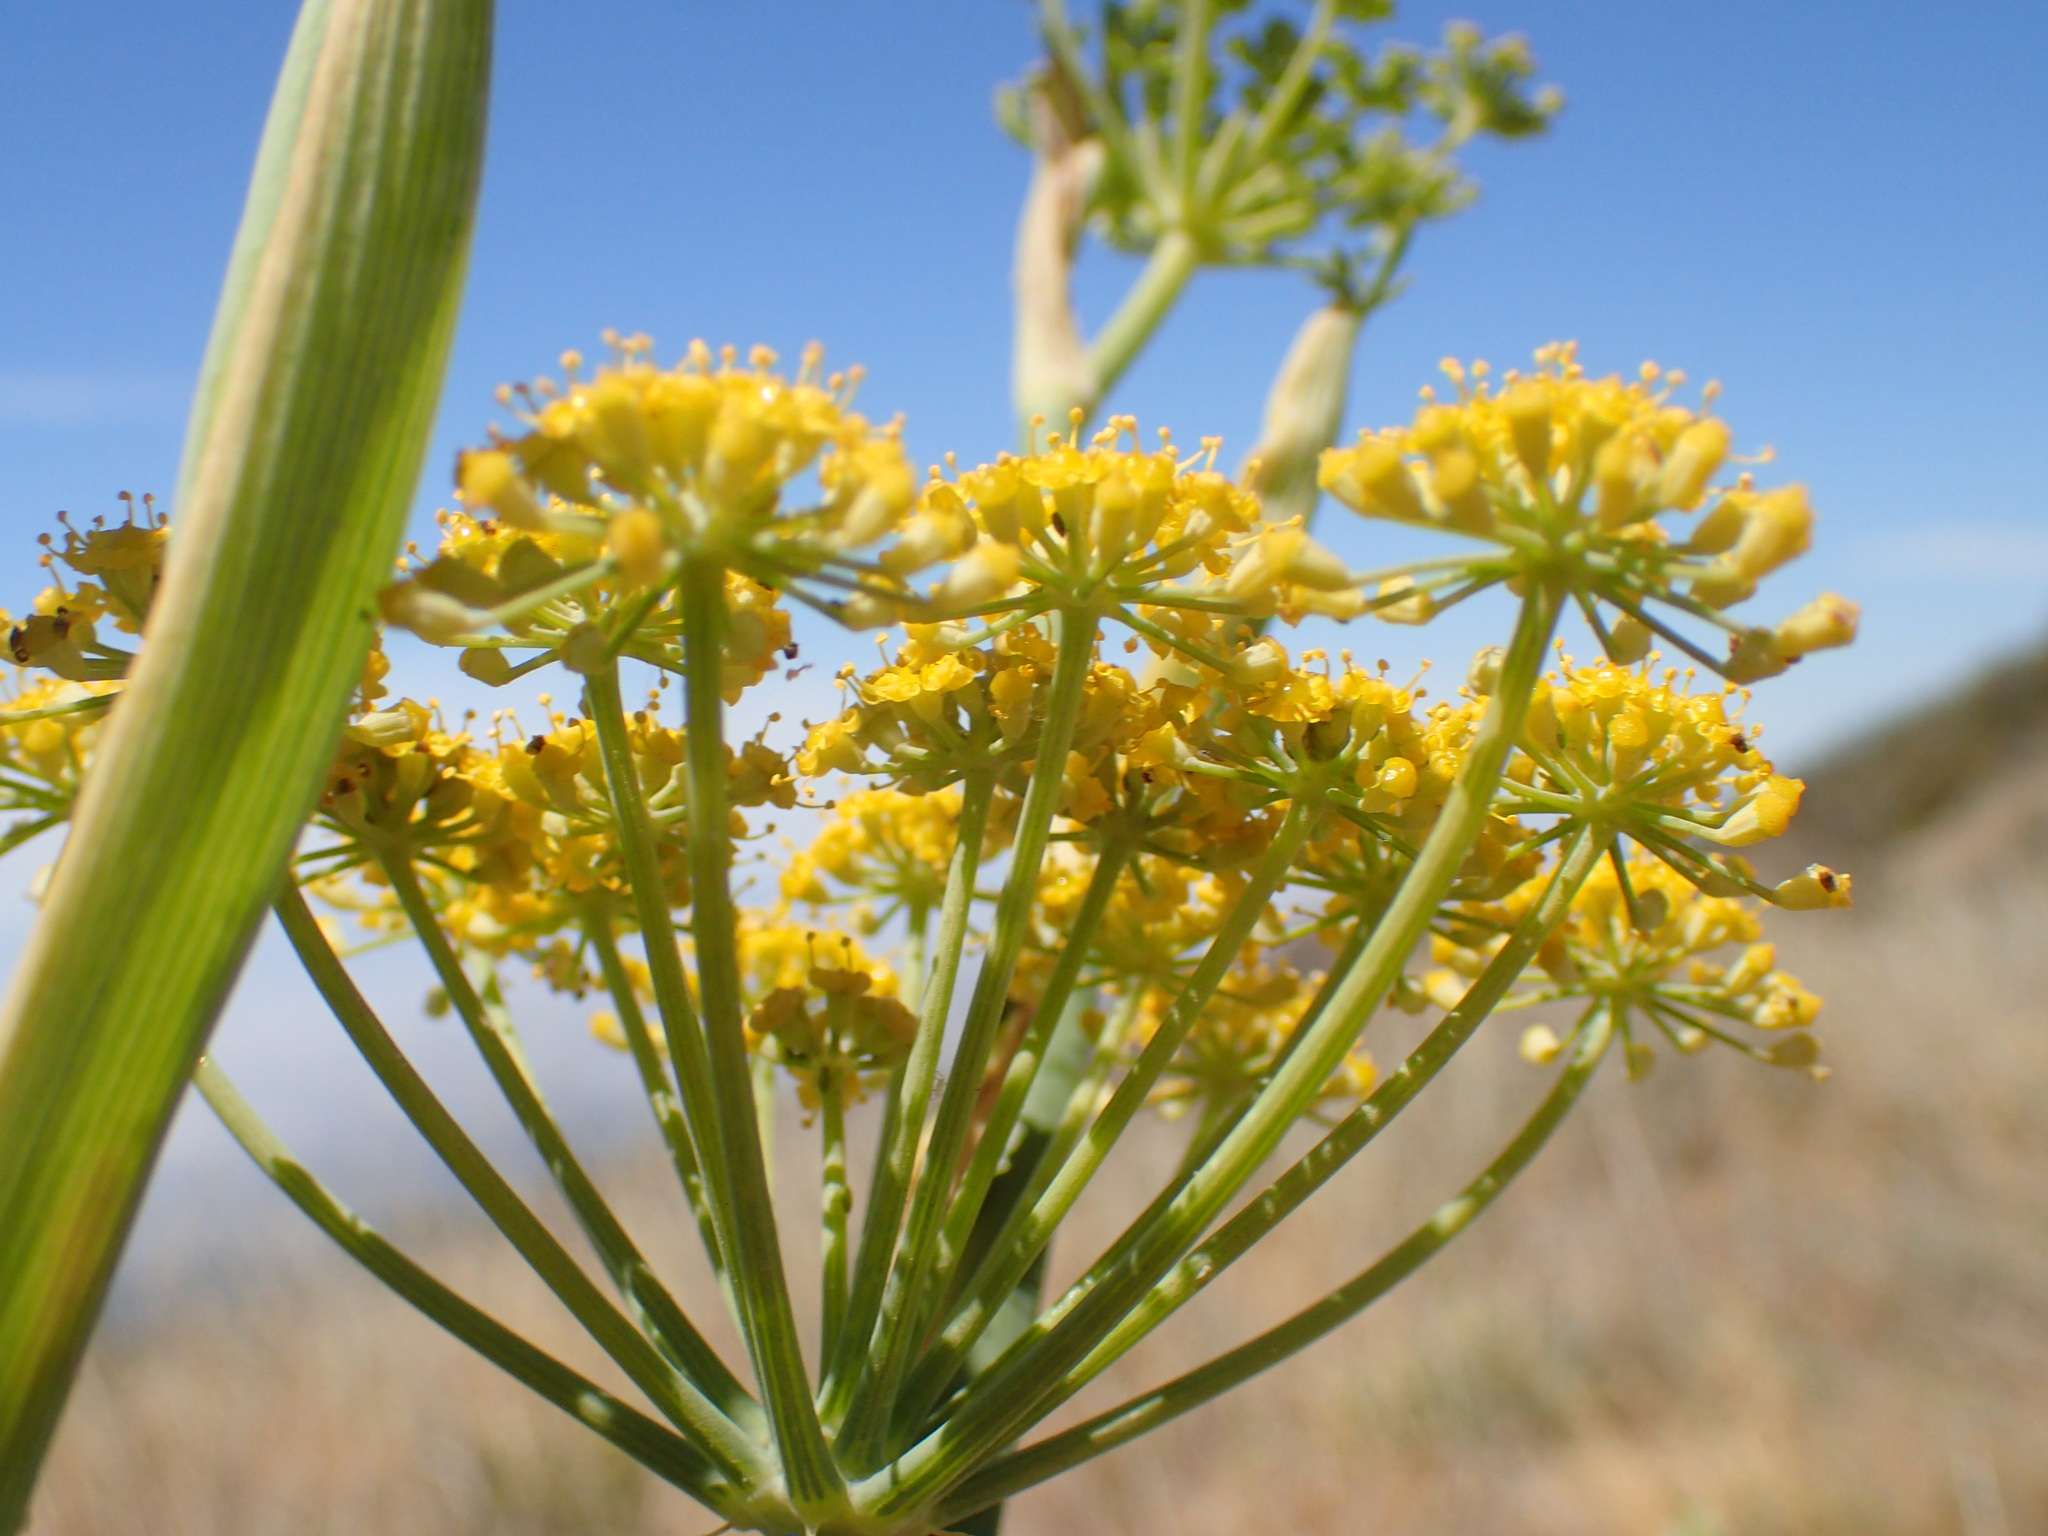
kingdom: Plantae
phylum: Tracheophyta
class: Magnoliopsida
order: Apiales
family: Apiaceae
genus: Foeniculum
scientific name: Foeniculum vulgare
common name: Fennel
